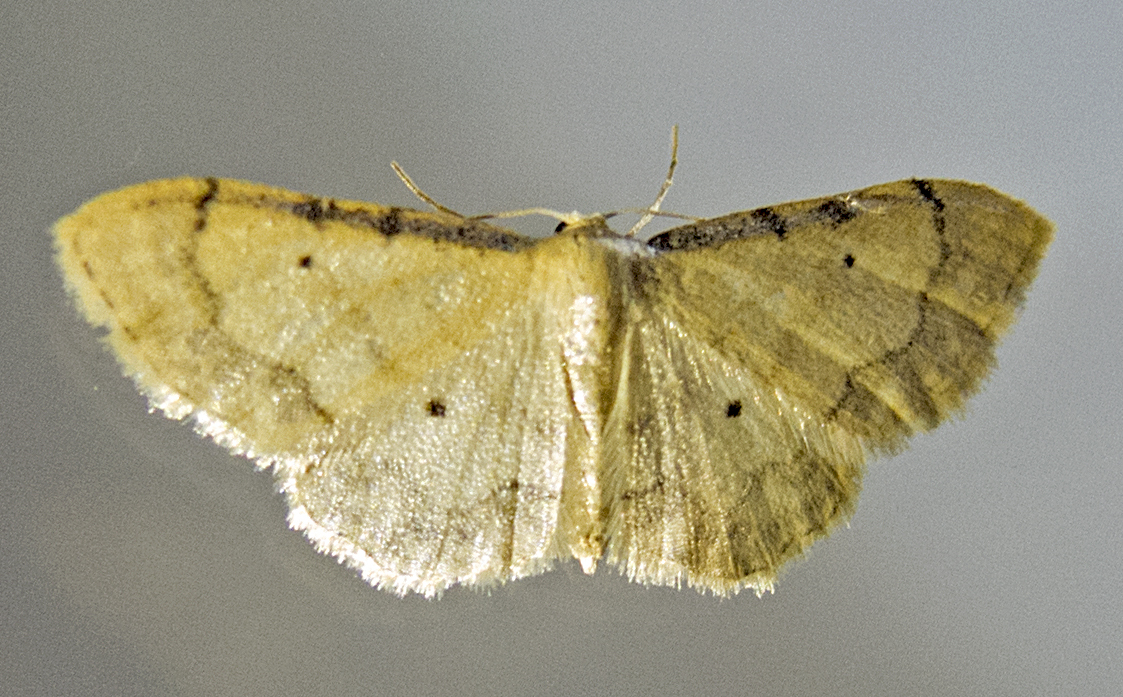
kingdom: Animalia
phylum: Arthropoda
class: Insecta
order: Lepidoptera
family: Geometridae
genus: Idaea
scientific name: Idaea politaria
